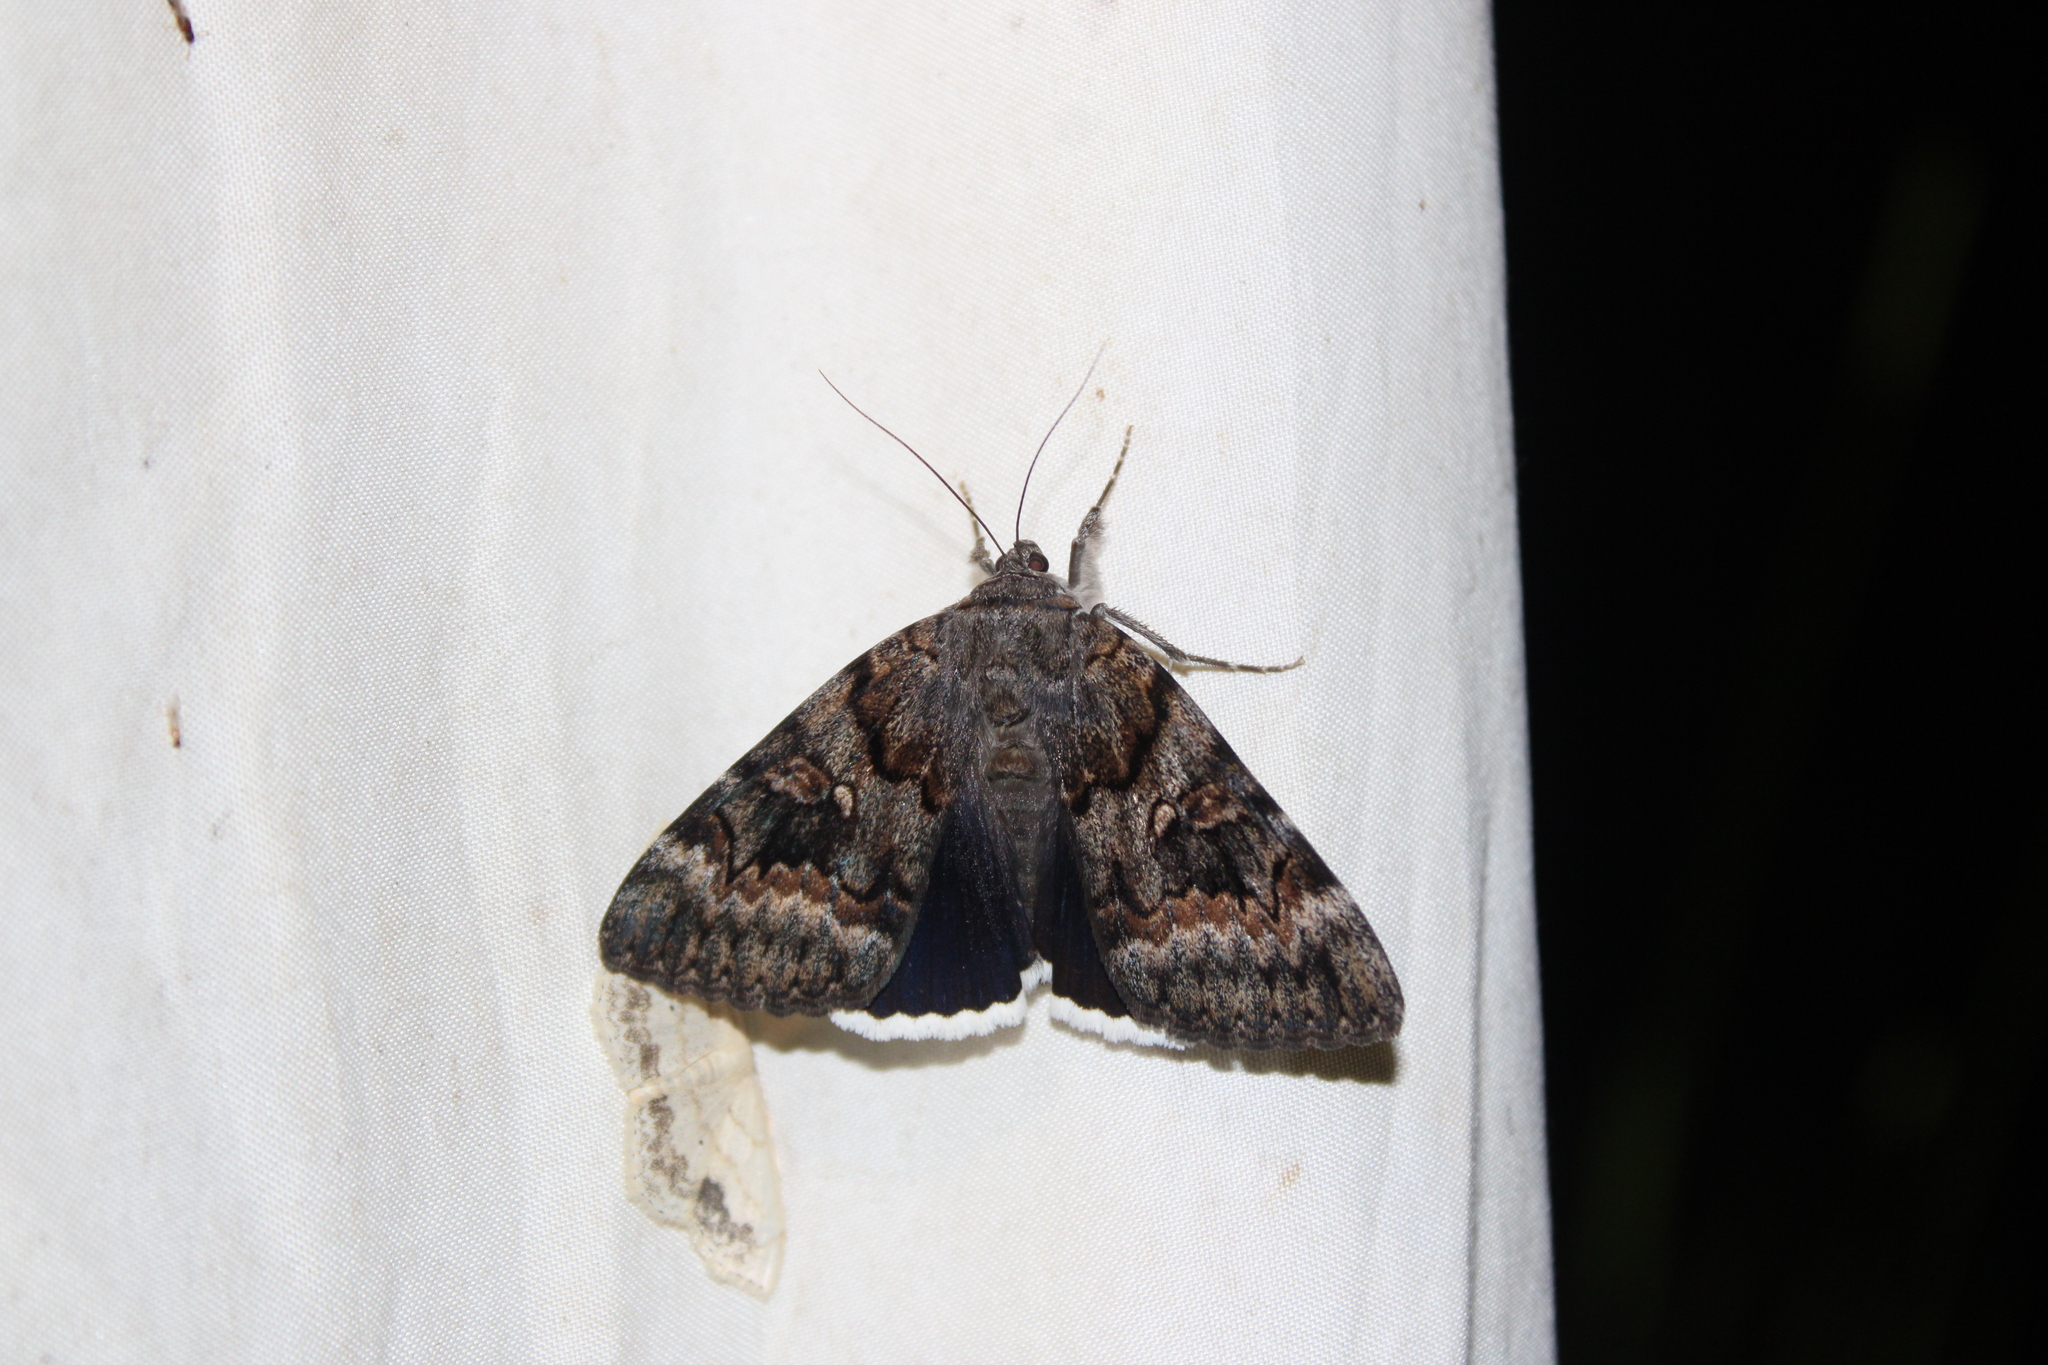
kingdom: Animalia
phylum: Arthropoda
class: Insecta
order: Lepidoptera
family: Erebidae
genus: Catocala
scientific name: Catocala epione
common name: Epione underwing
